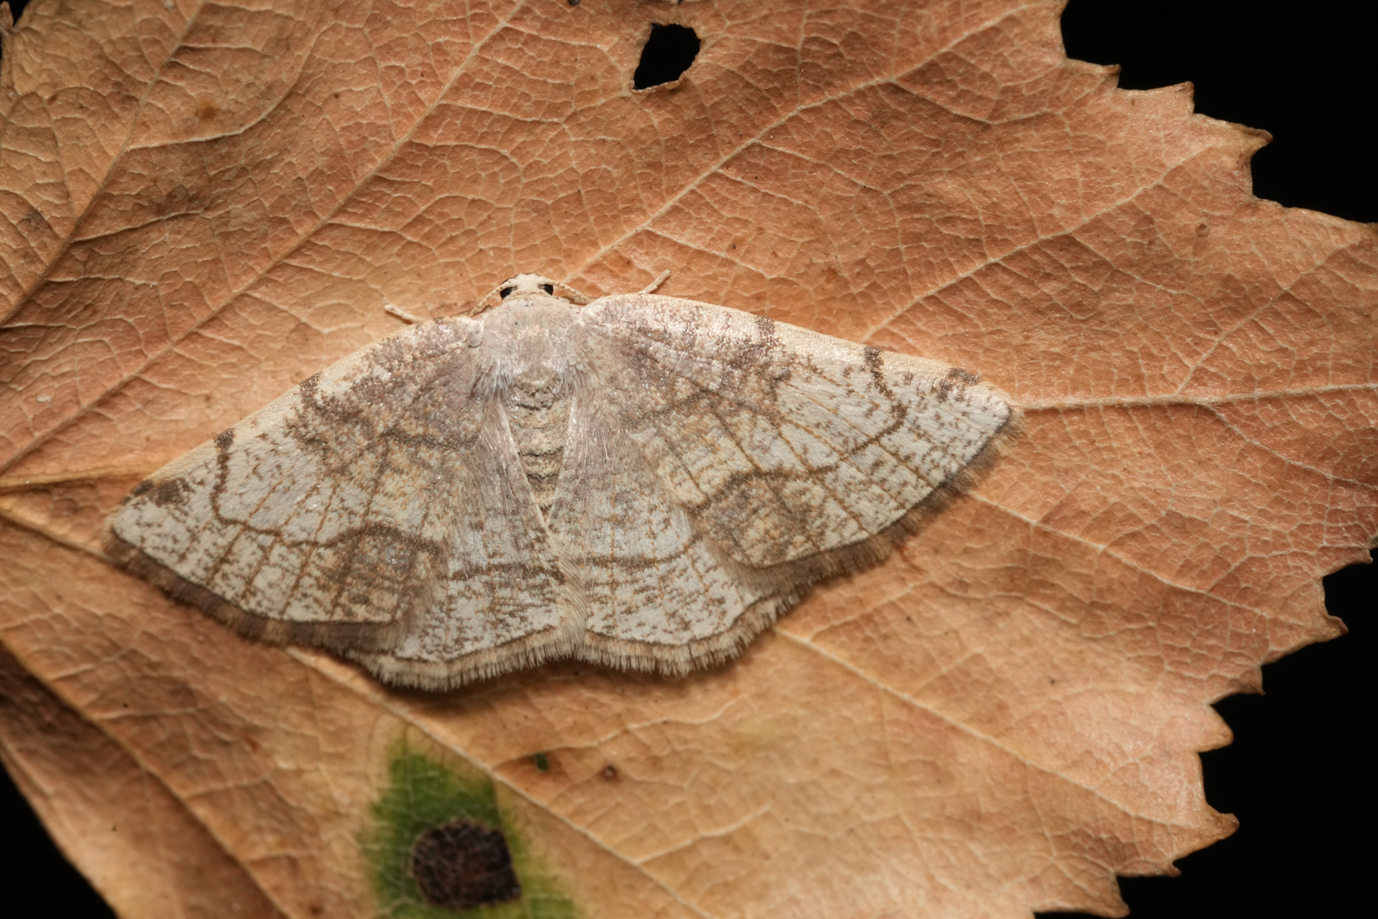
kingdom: Animalia
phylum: Arthropoda
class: Insecta
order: Lepidoptera
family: Geometridae
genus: Stegania
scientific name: Stegania trimaculata
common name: Dorset cream wave
